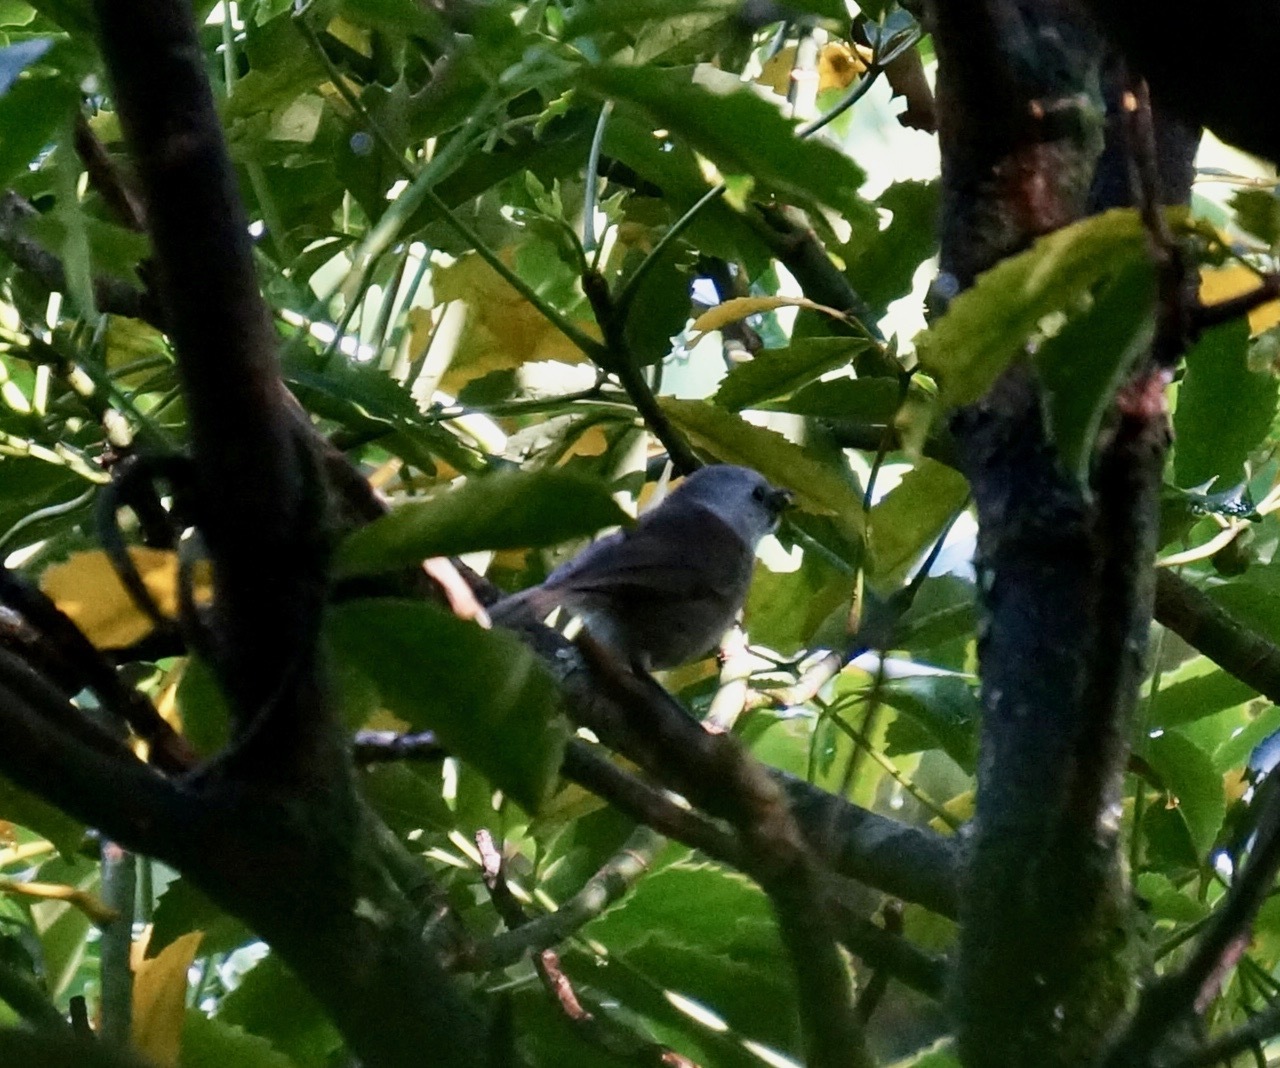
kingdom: Animalia
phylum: Chordata
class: Aves
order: Passeriformes
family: Acanthizidae
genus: Mohoua
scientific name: Mohoua albicilla
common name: Whitehead
